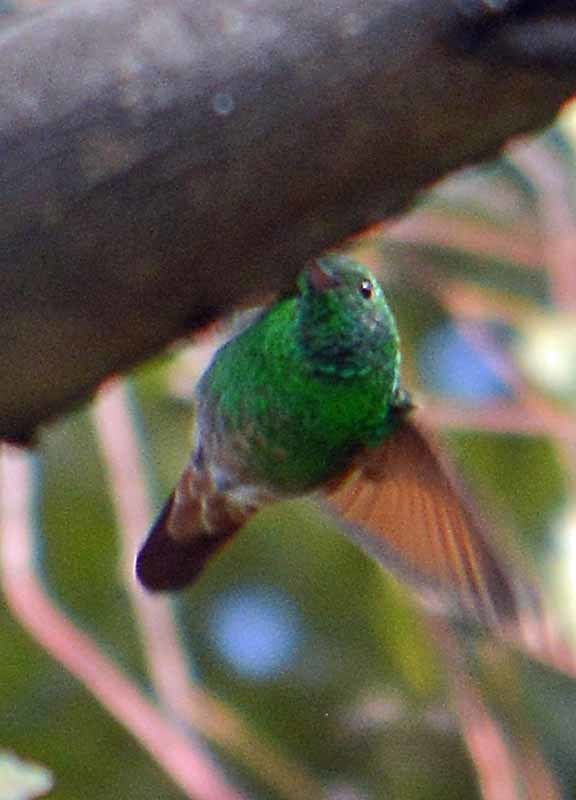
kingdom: Animalia
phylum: Chordata
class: Aves
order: Apodiformes
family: Trochilidae
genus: Saucerottia
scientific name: Saucerottia beryllina
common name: Berylline hummingbird
